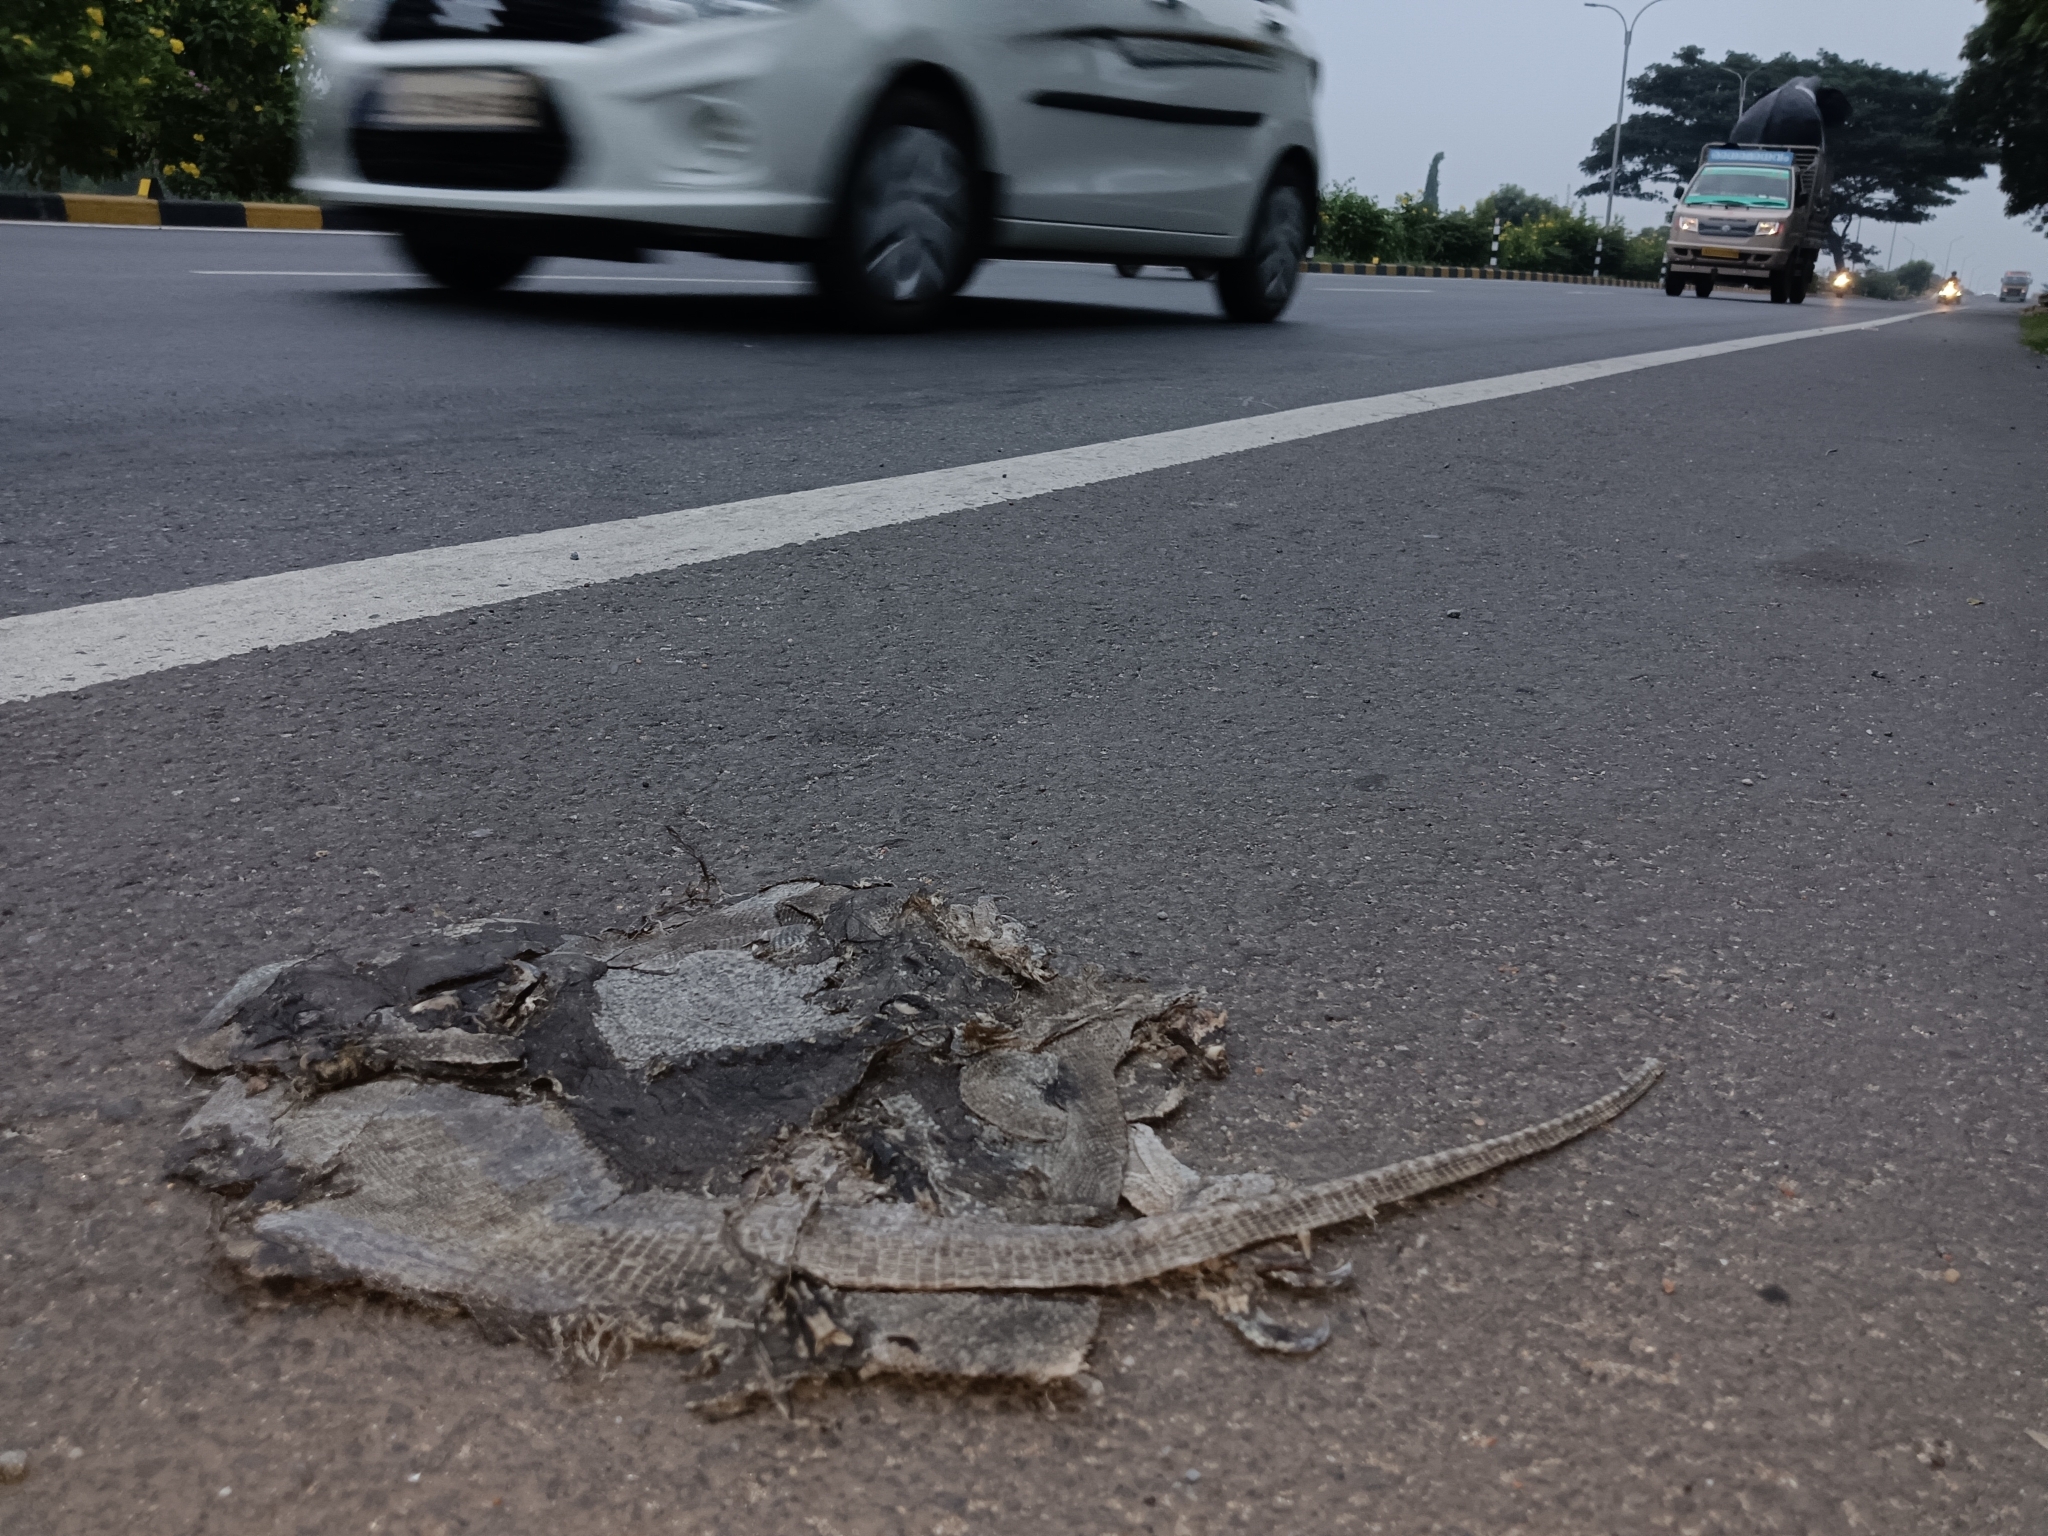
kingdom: Animalia
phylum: Chordata
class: Squamata
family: Varanidae
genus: Varanus
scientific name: Varanus bengalensis
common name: Bengal monitor
